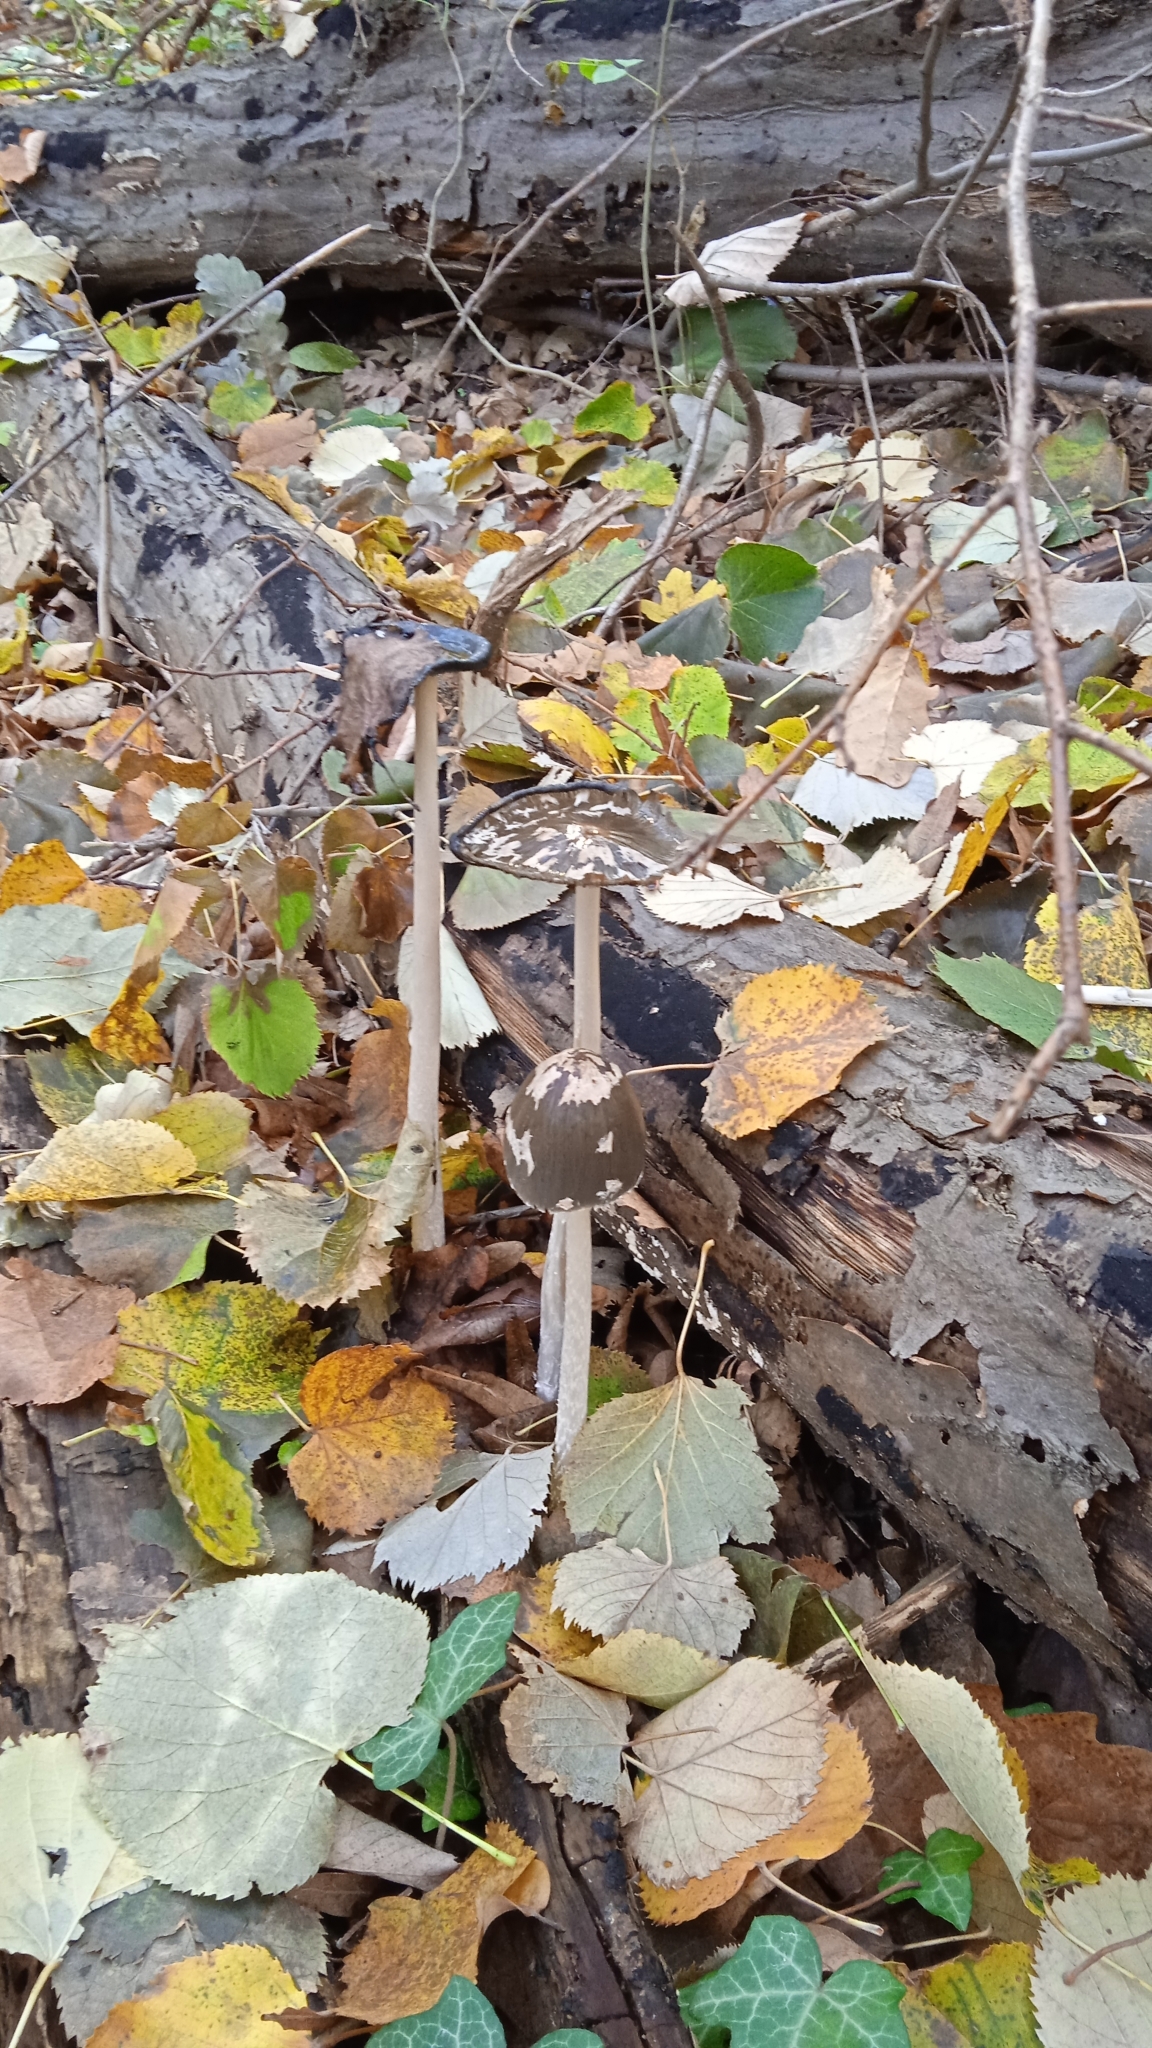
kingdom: Fungi
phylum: Basidiomycota
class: Agaricomycetes
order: Agaricales
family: Psathyrellaceae
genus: Coprinopsis
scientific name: Coprinopsis picacea
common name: Magpie inkcap
